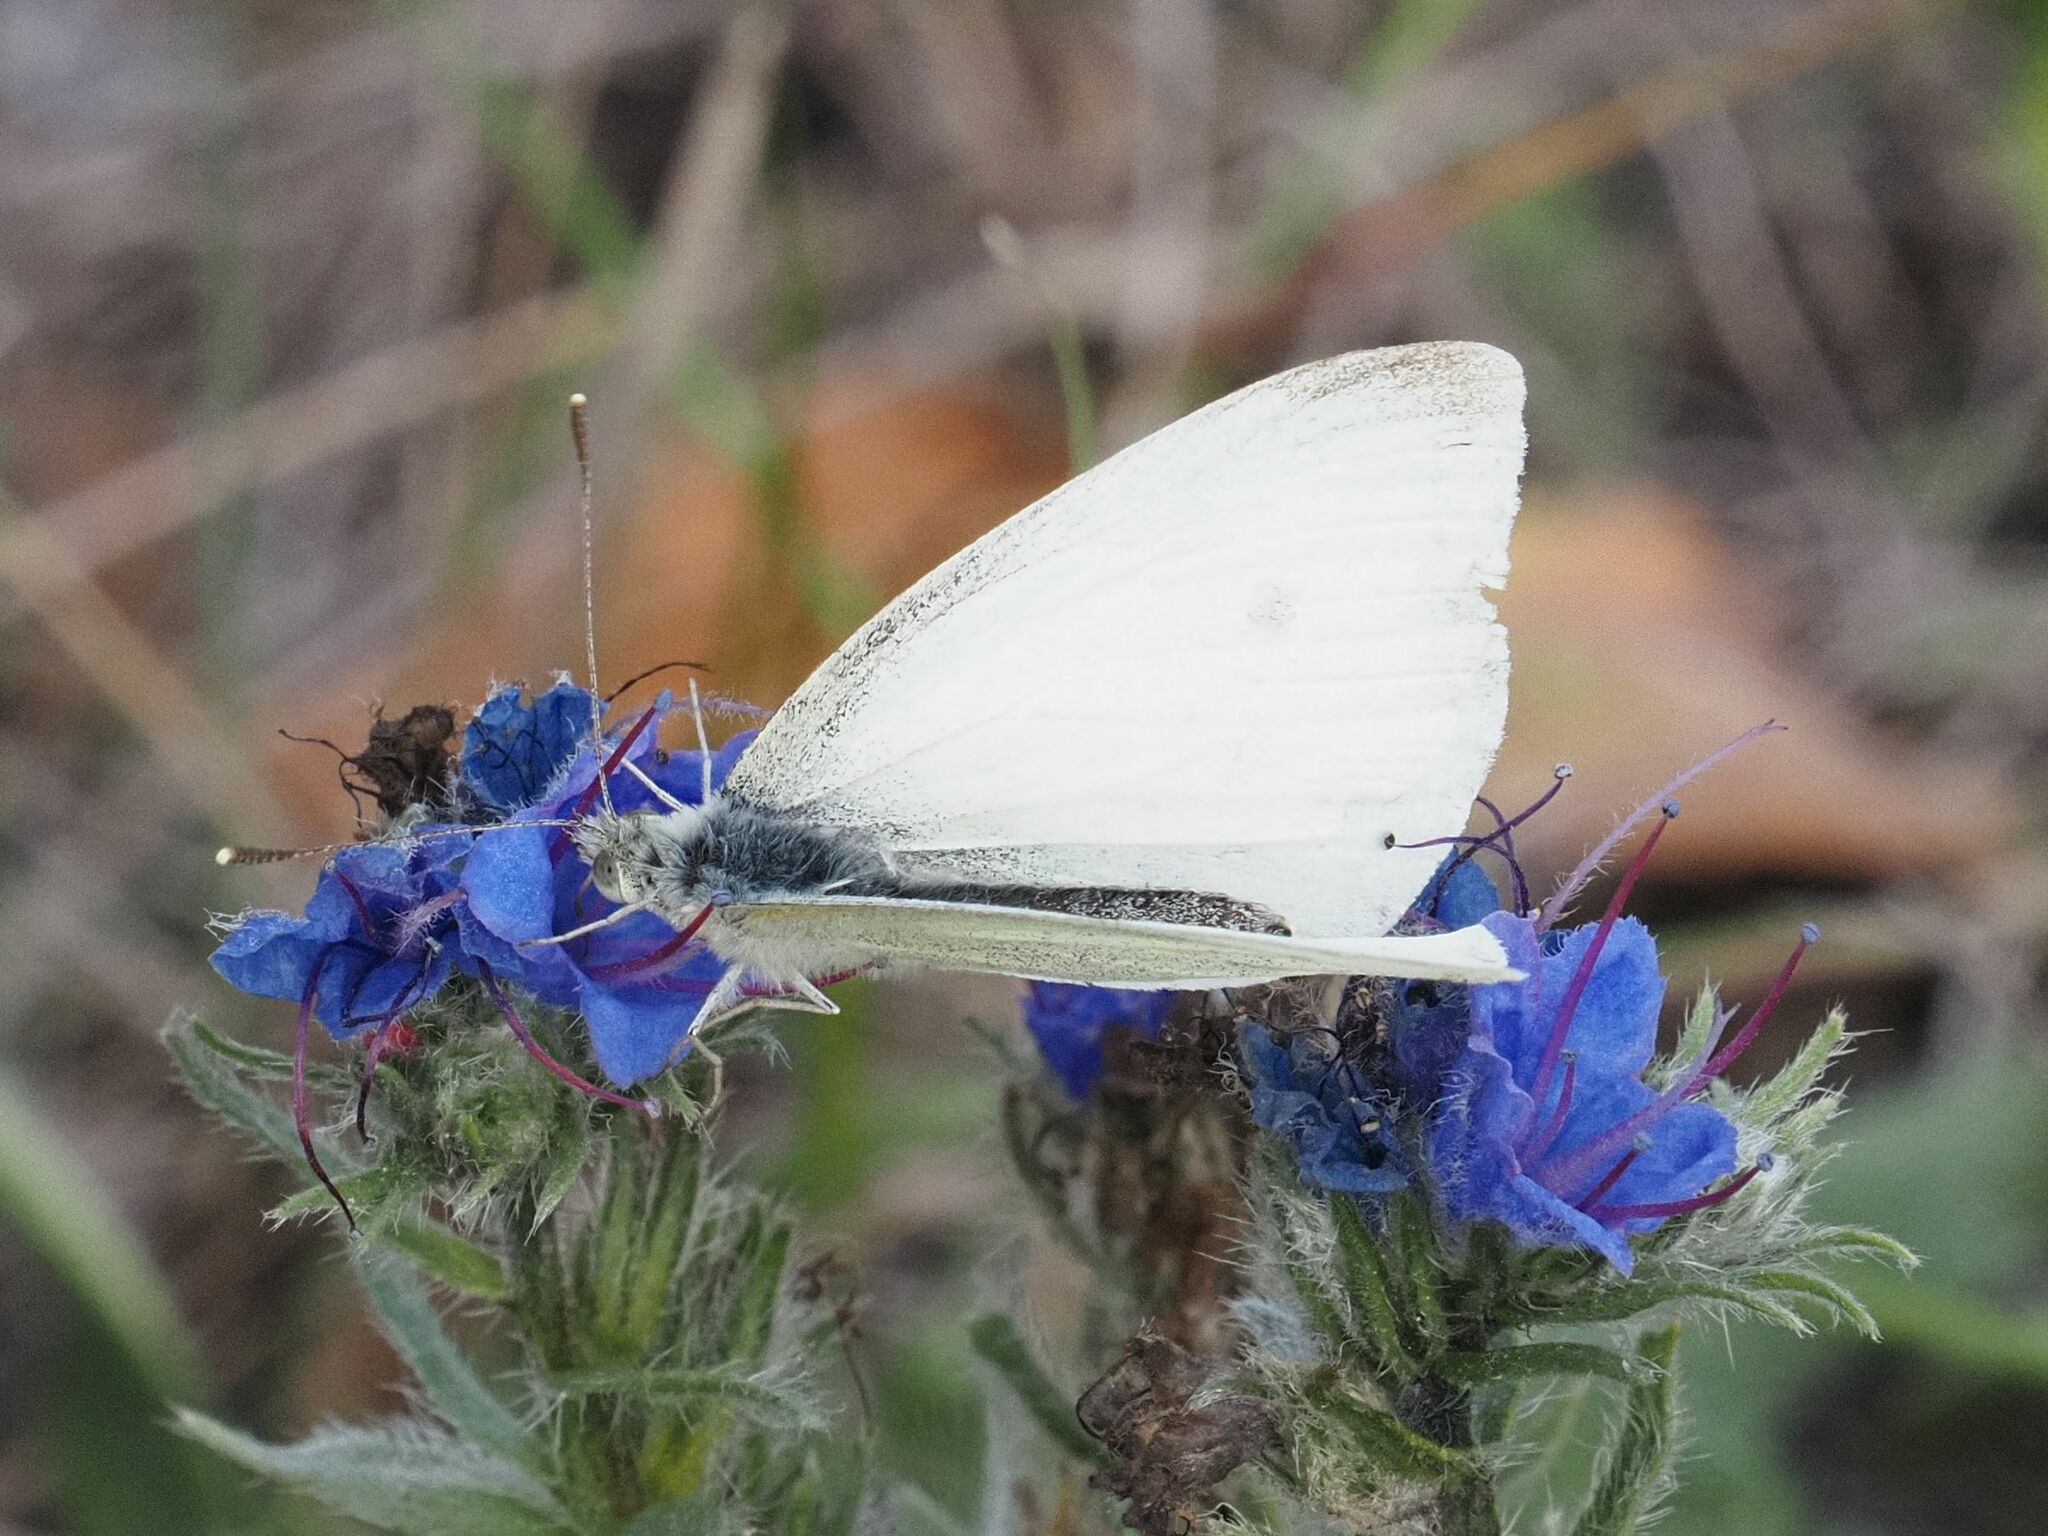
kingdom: Animalia
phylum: Arthropoda
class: Insecta
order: Lepidoptera
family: Pieridae
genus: Pieris
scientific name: Pieris rapae
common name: Small white
